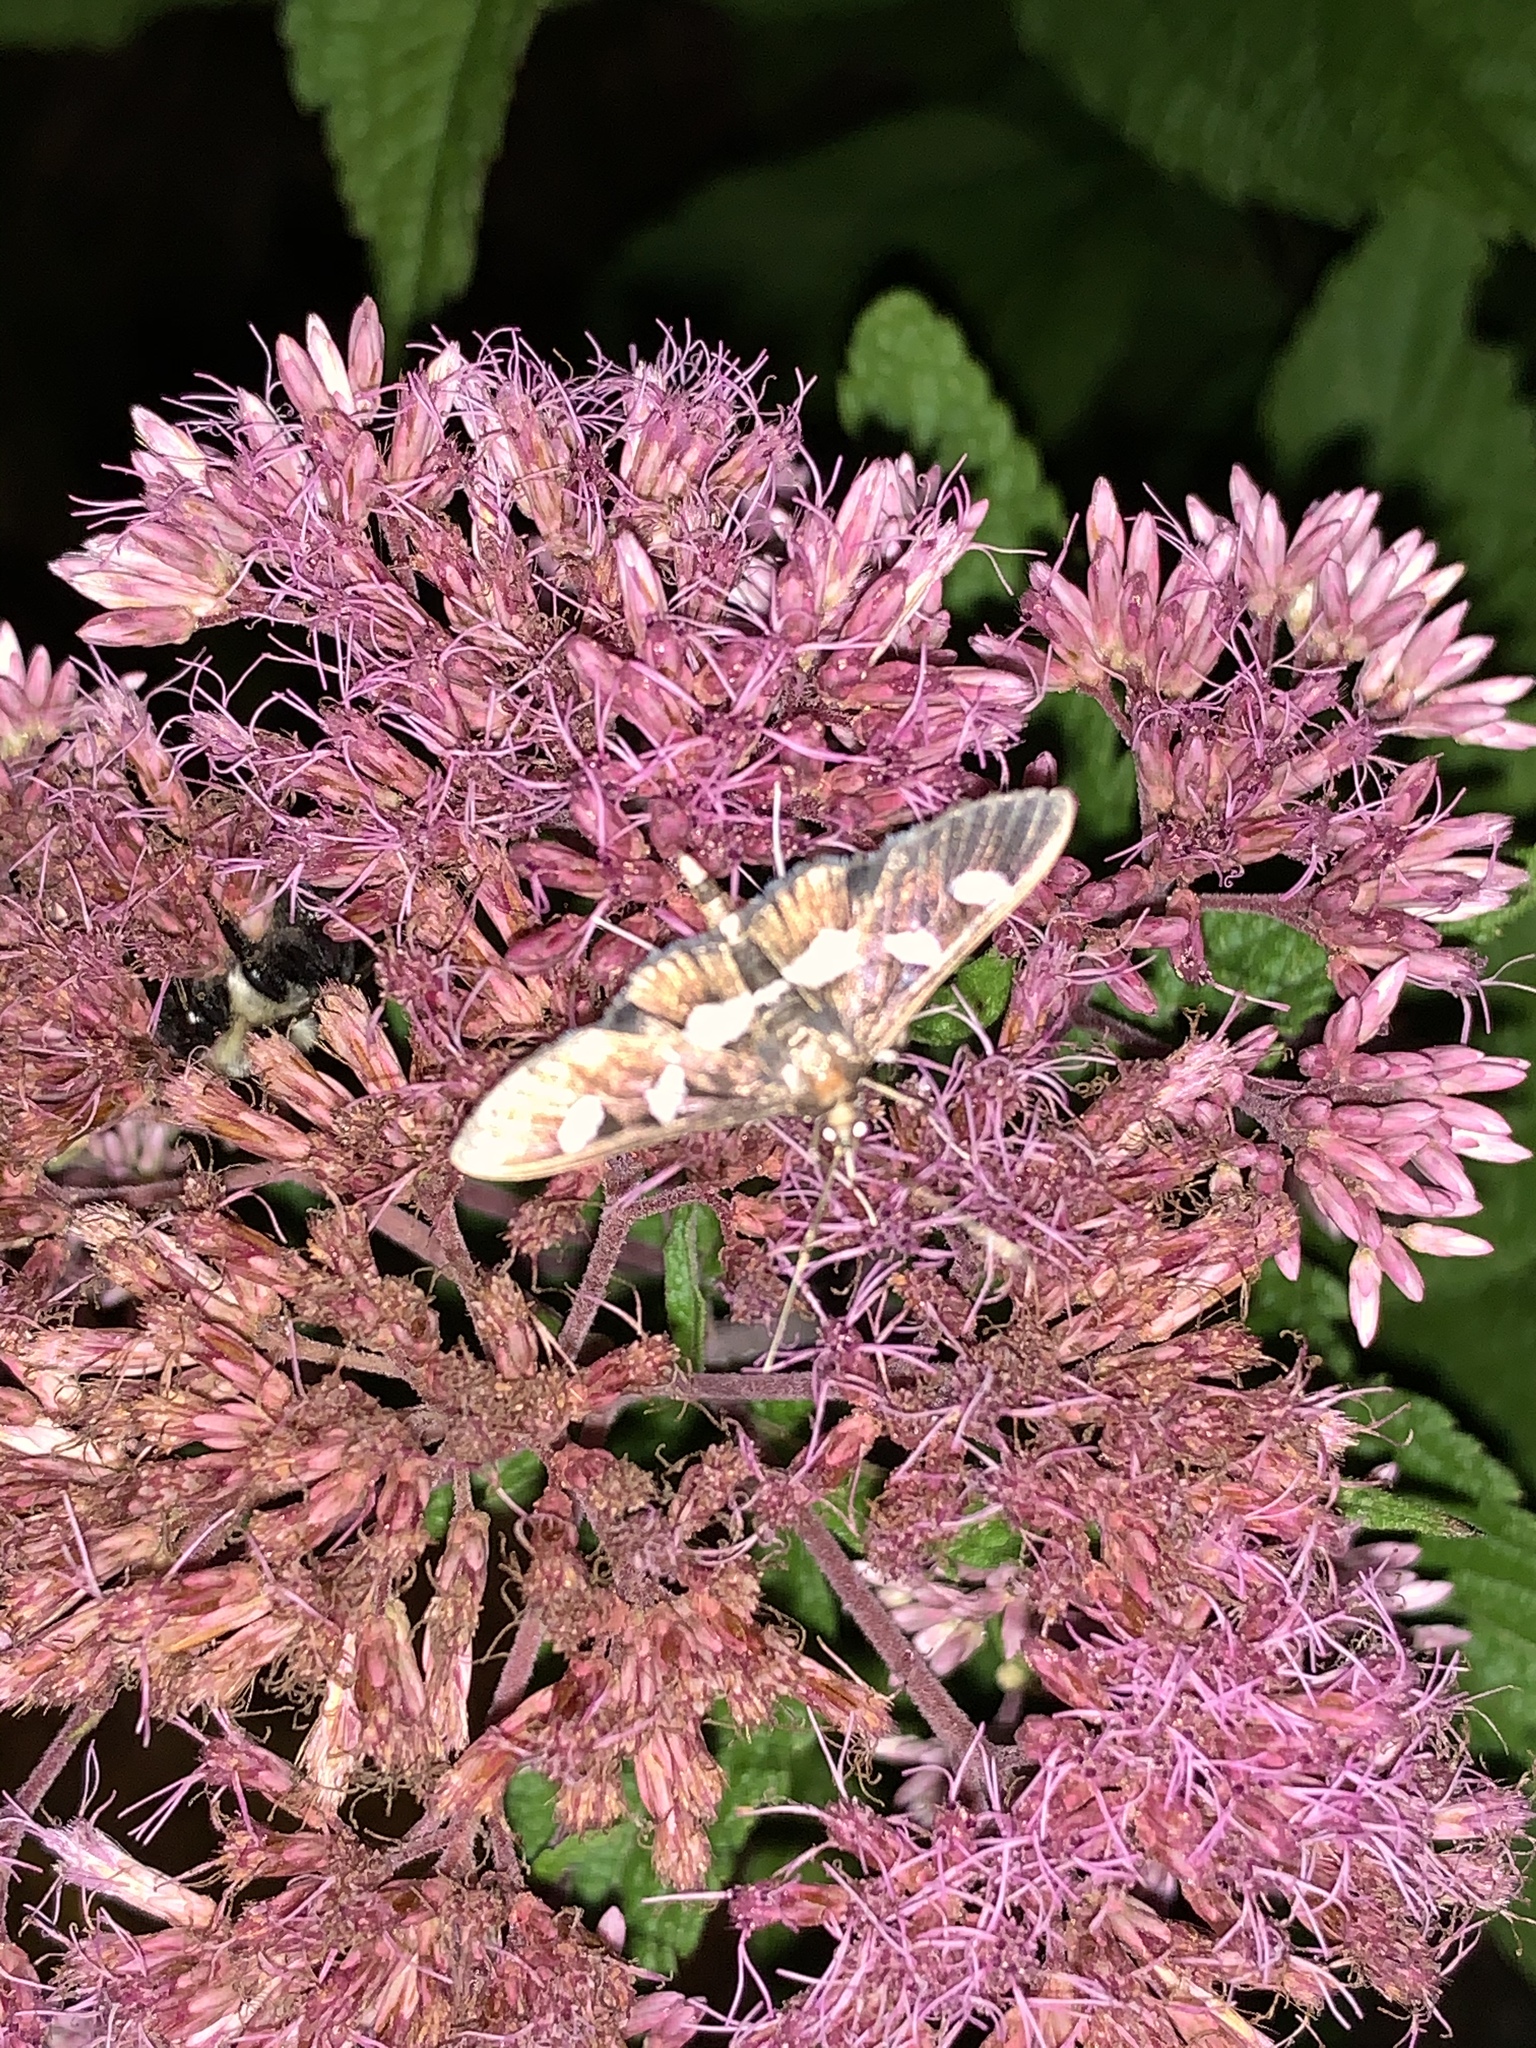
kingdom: Animalia
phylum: Arthropoda
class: Insecta
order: Lepidoptera
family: Crambidae
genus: Desmia
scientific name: Desmia
